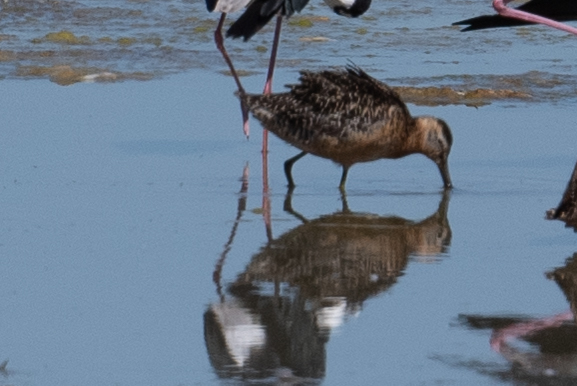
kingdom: Animalia
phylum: Chordata
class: Aves
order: Charadriiformes
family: Scolopacidae
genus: Limnodromus
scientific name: Limnodromus scolopaceus
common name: Long-billed dowitcher
